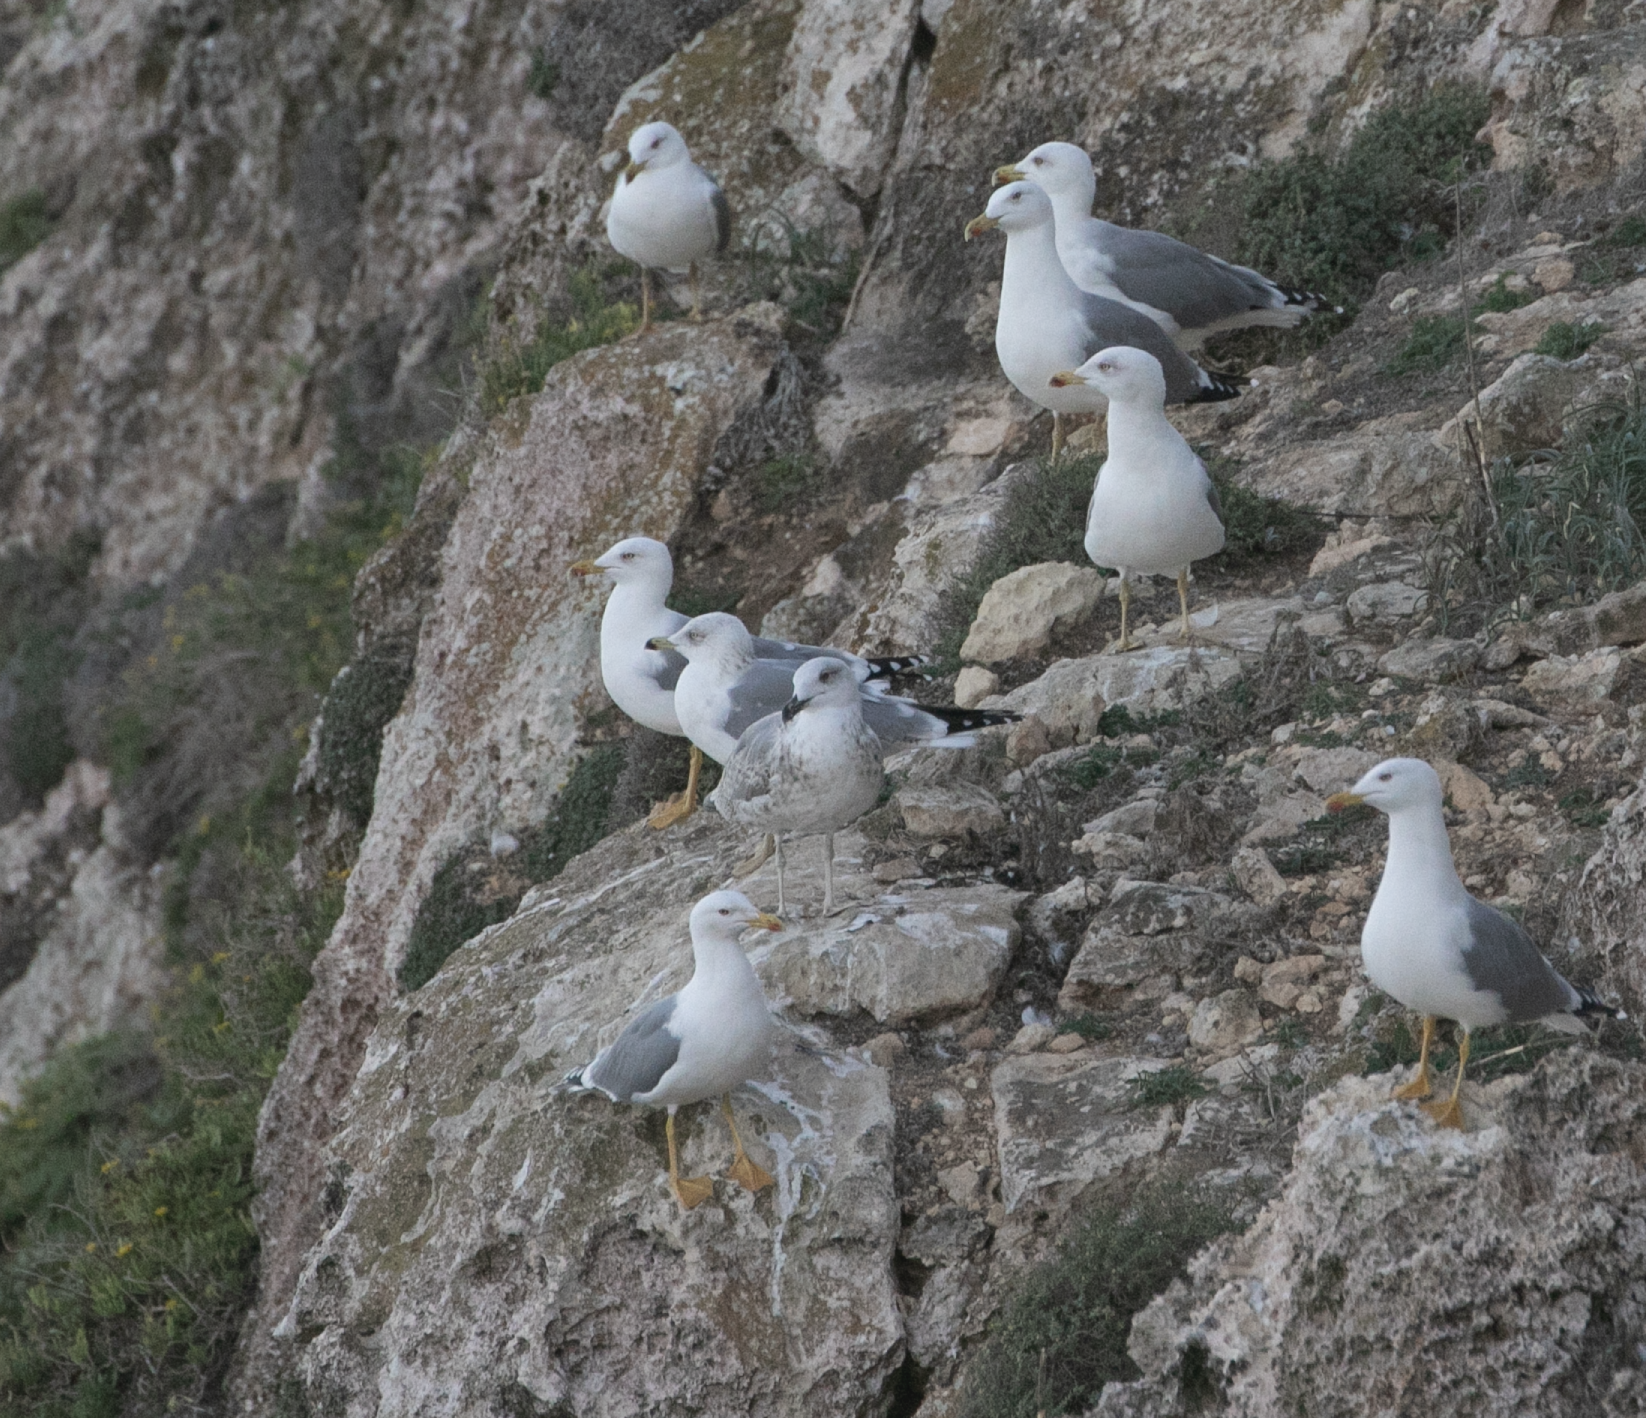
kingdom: Animalia
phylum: Chordata
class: Aves
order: Charadriiformes
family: Laridae
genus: Larus
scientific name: Larus michahellis
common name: Yellow-legged gull
